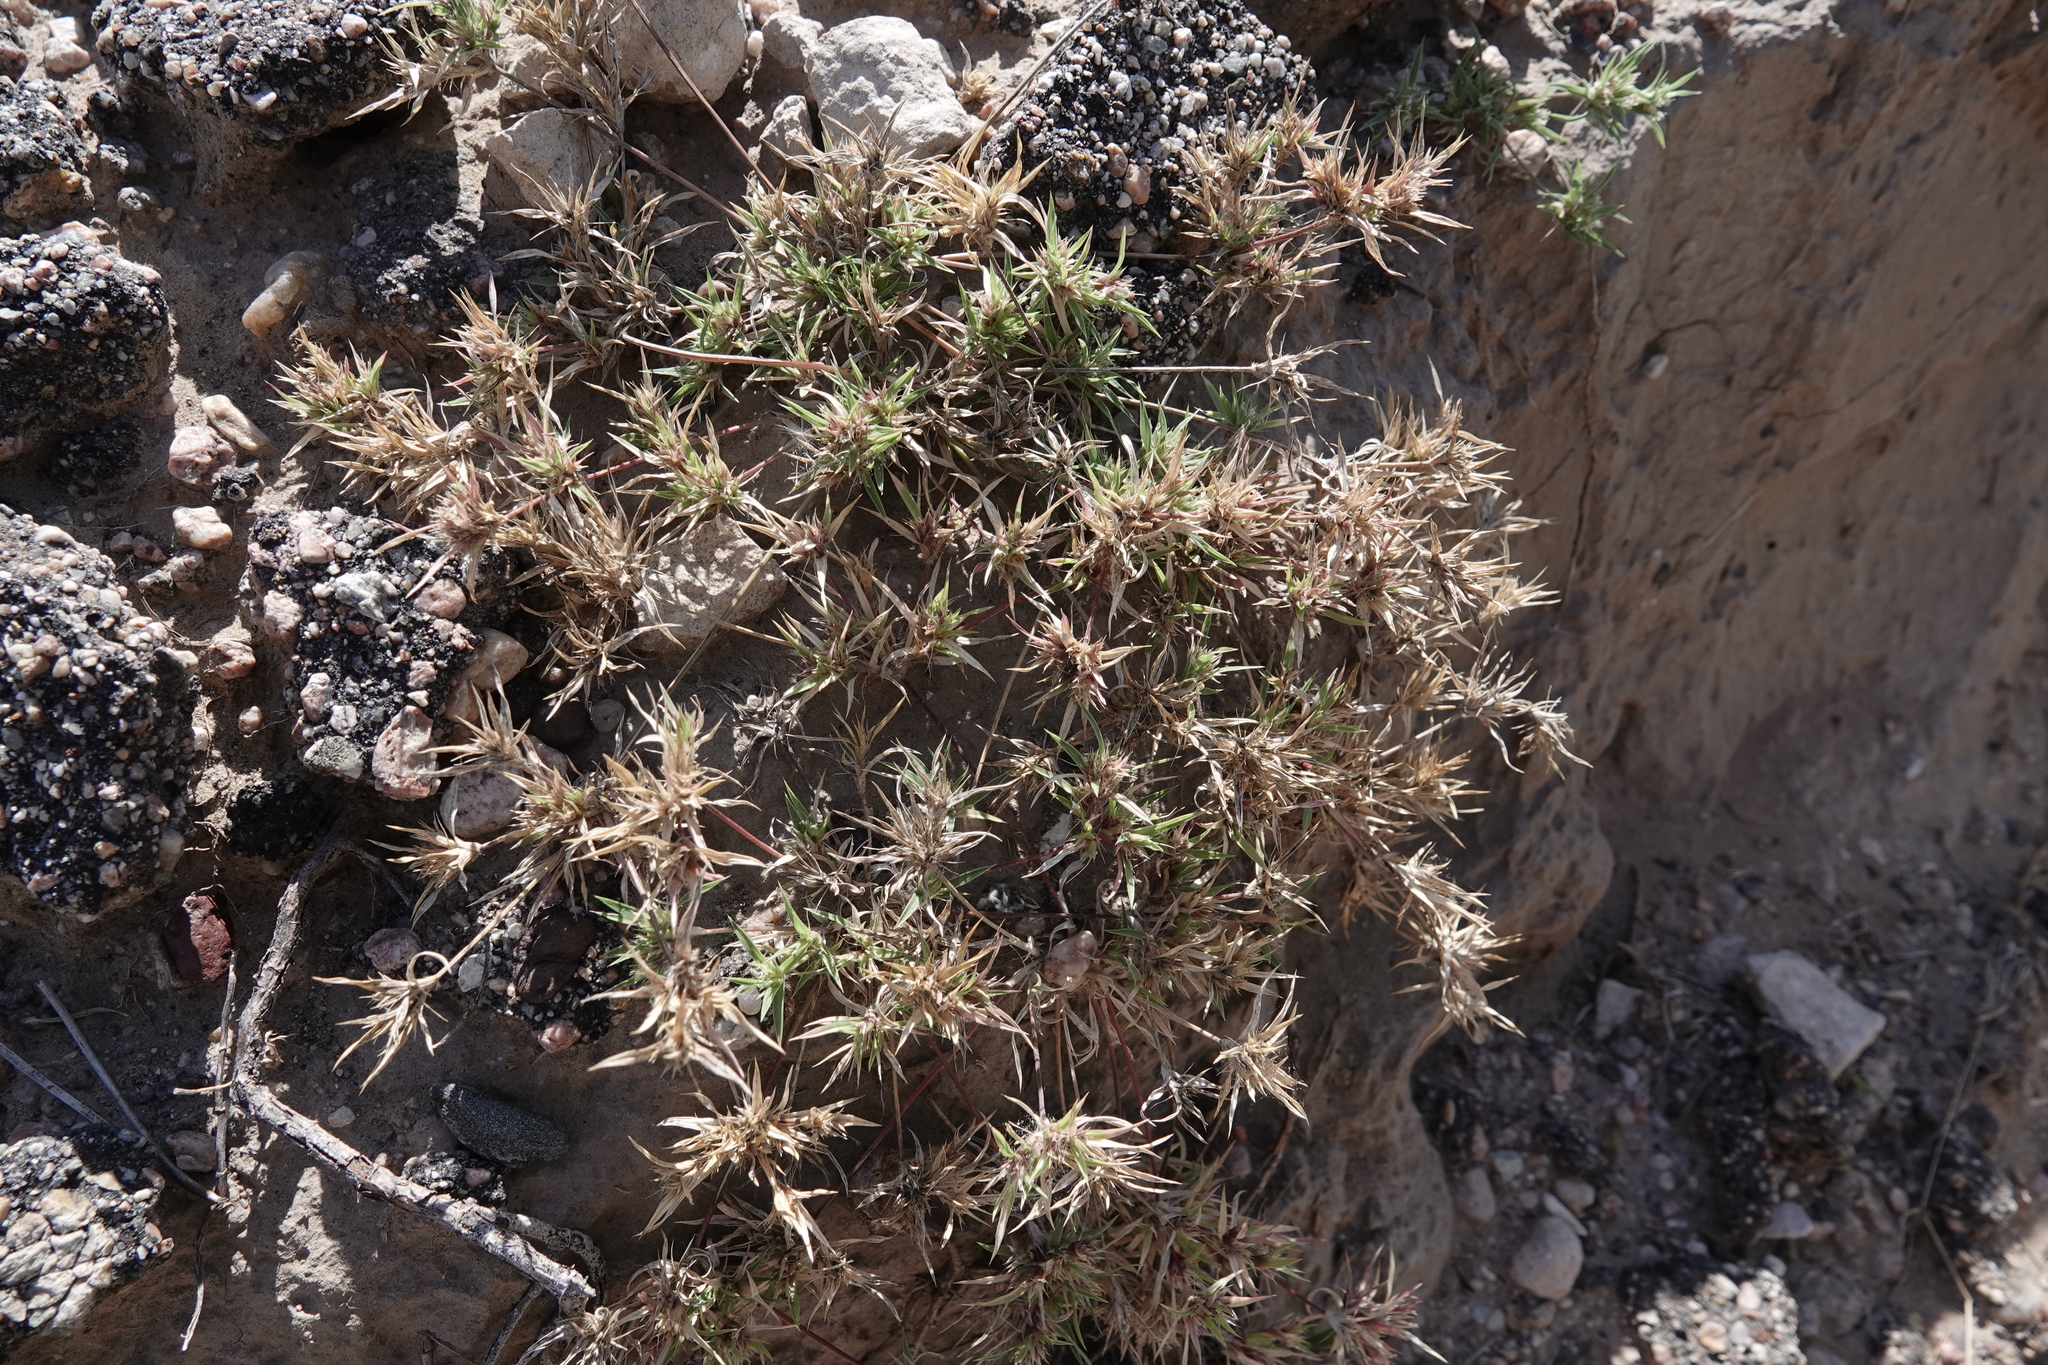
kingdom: Plantae
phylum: Tracheophyta
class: Liliopsida
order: Poales
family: Poaceae
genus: Munroa
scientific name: Munroa squarrosa
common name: False buffalo grass
